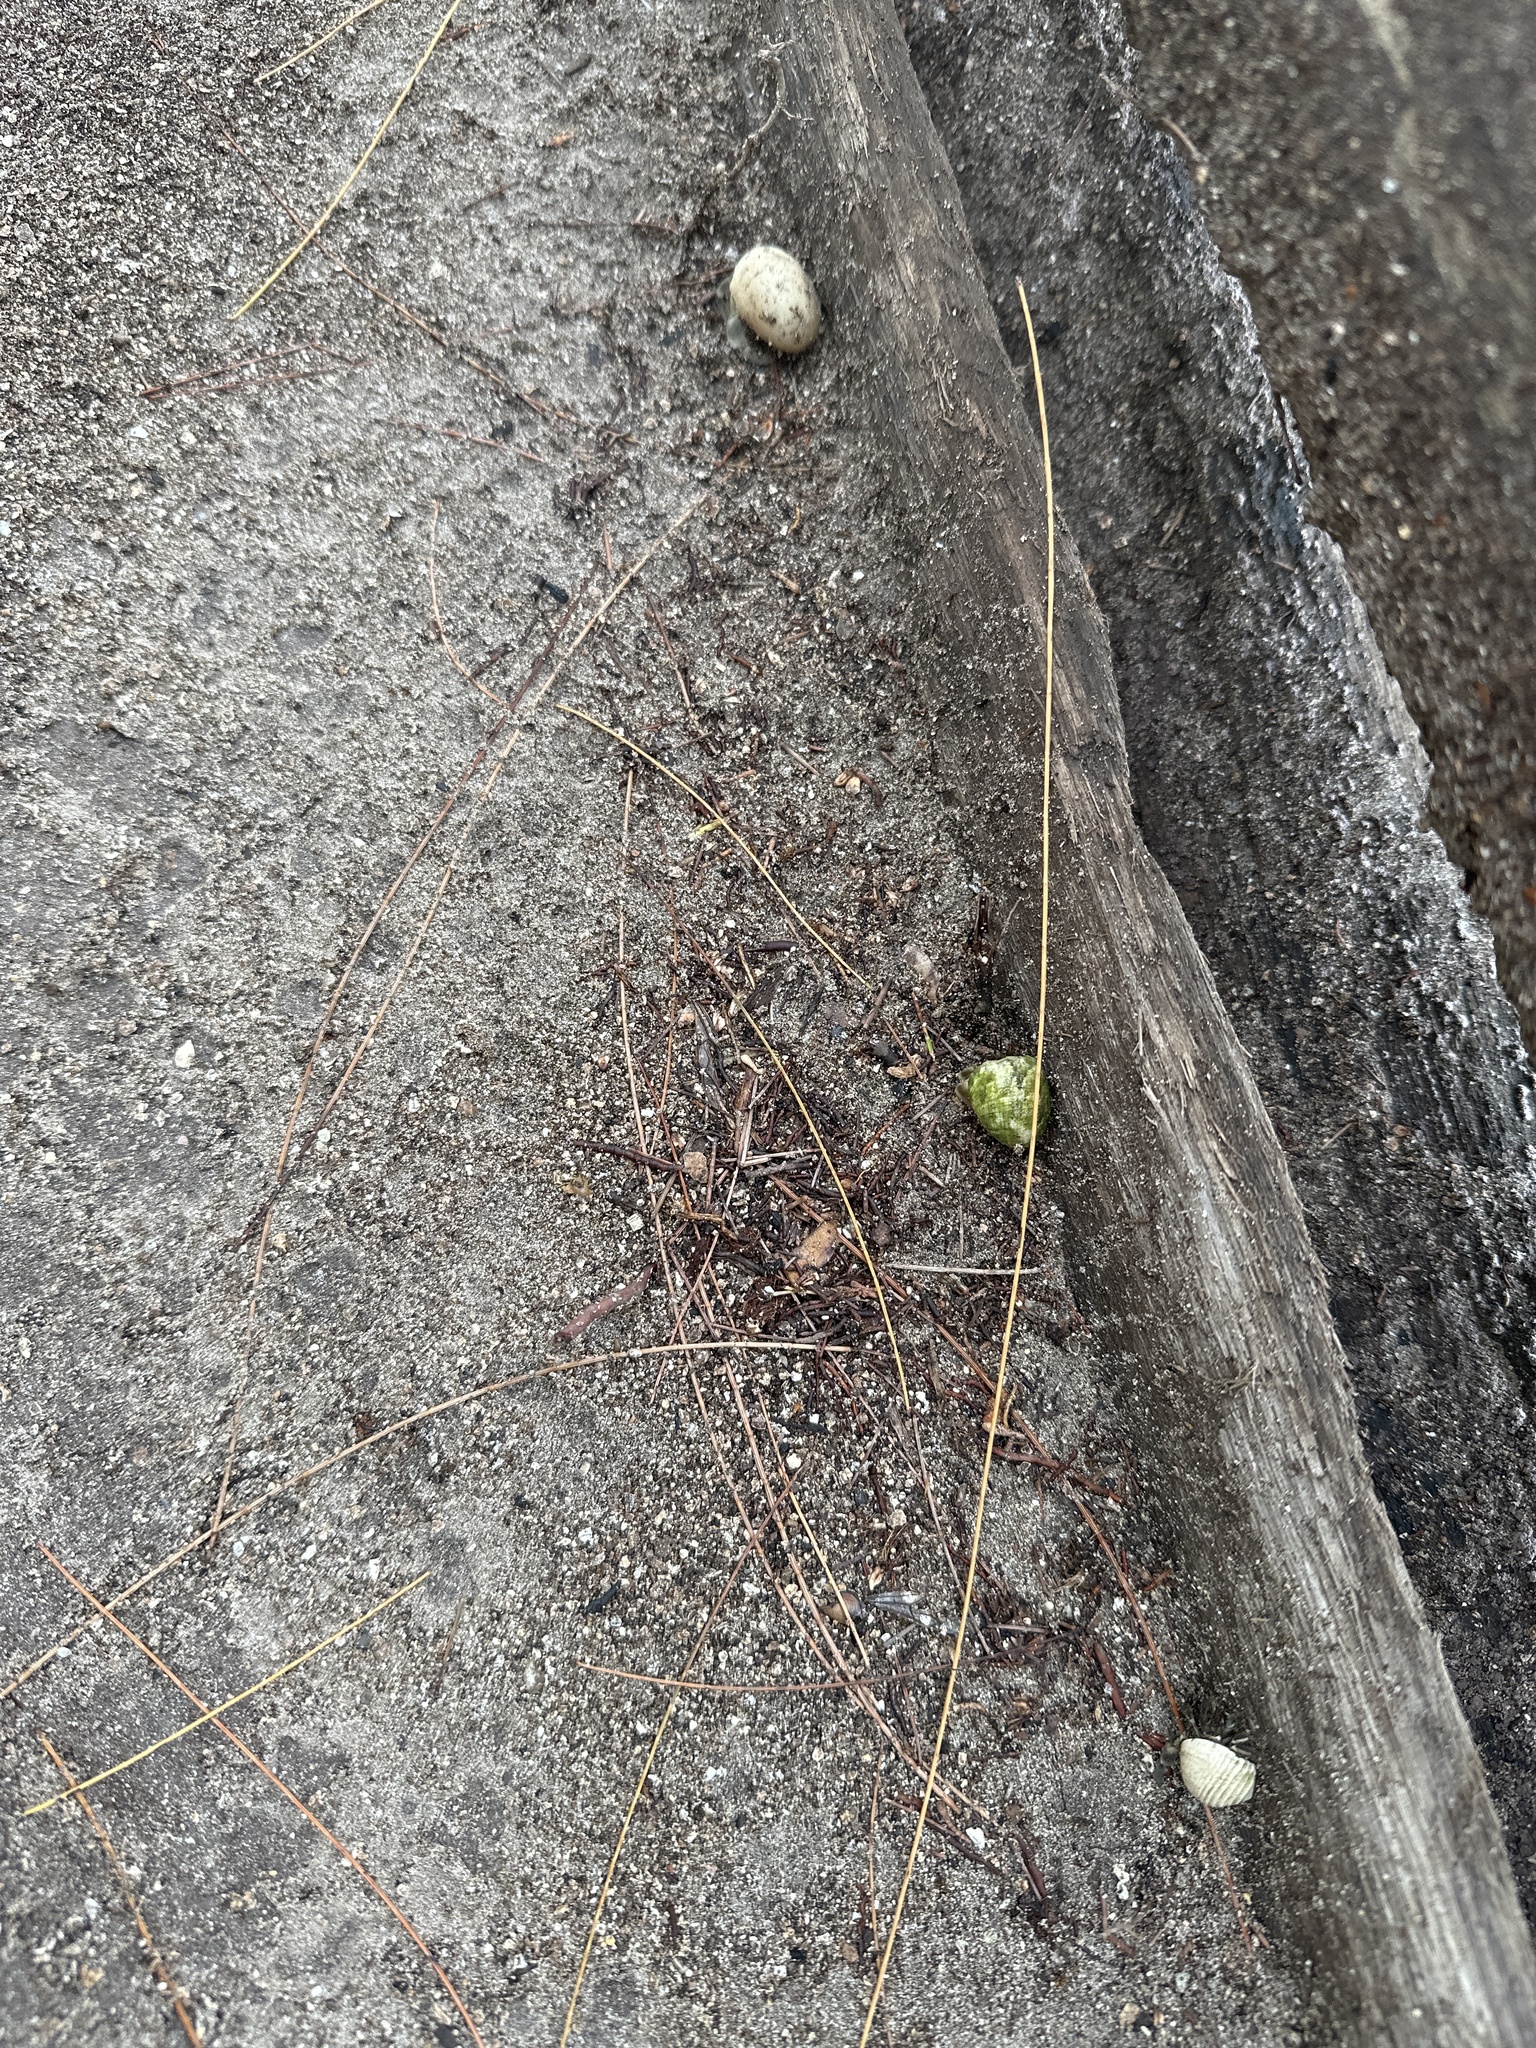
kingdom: Animalia
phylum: Arthropoda
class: Malacostraca
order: Decapoda
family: Coenobitidae
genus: Coenobita
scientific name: Coenobita rugosus
